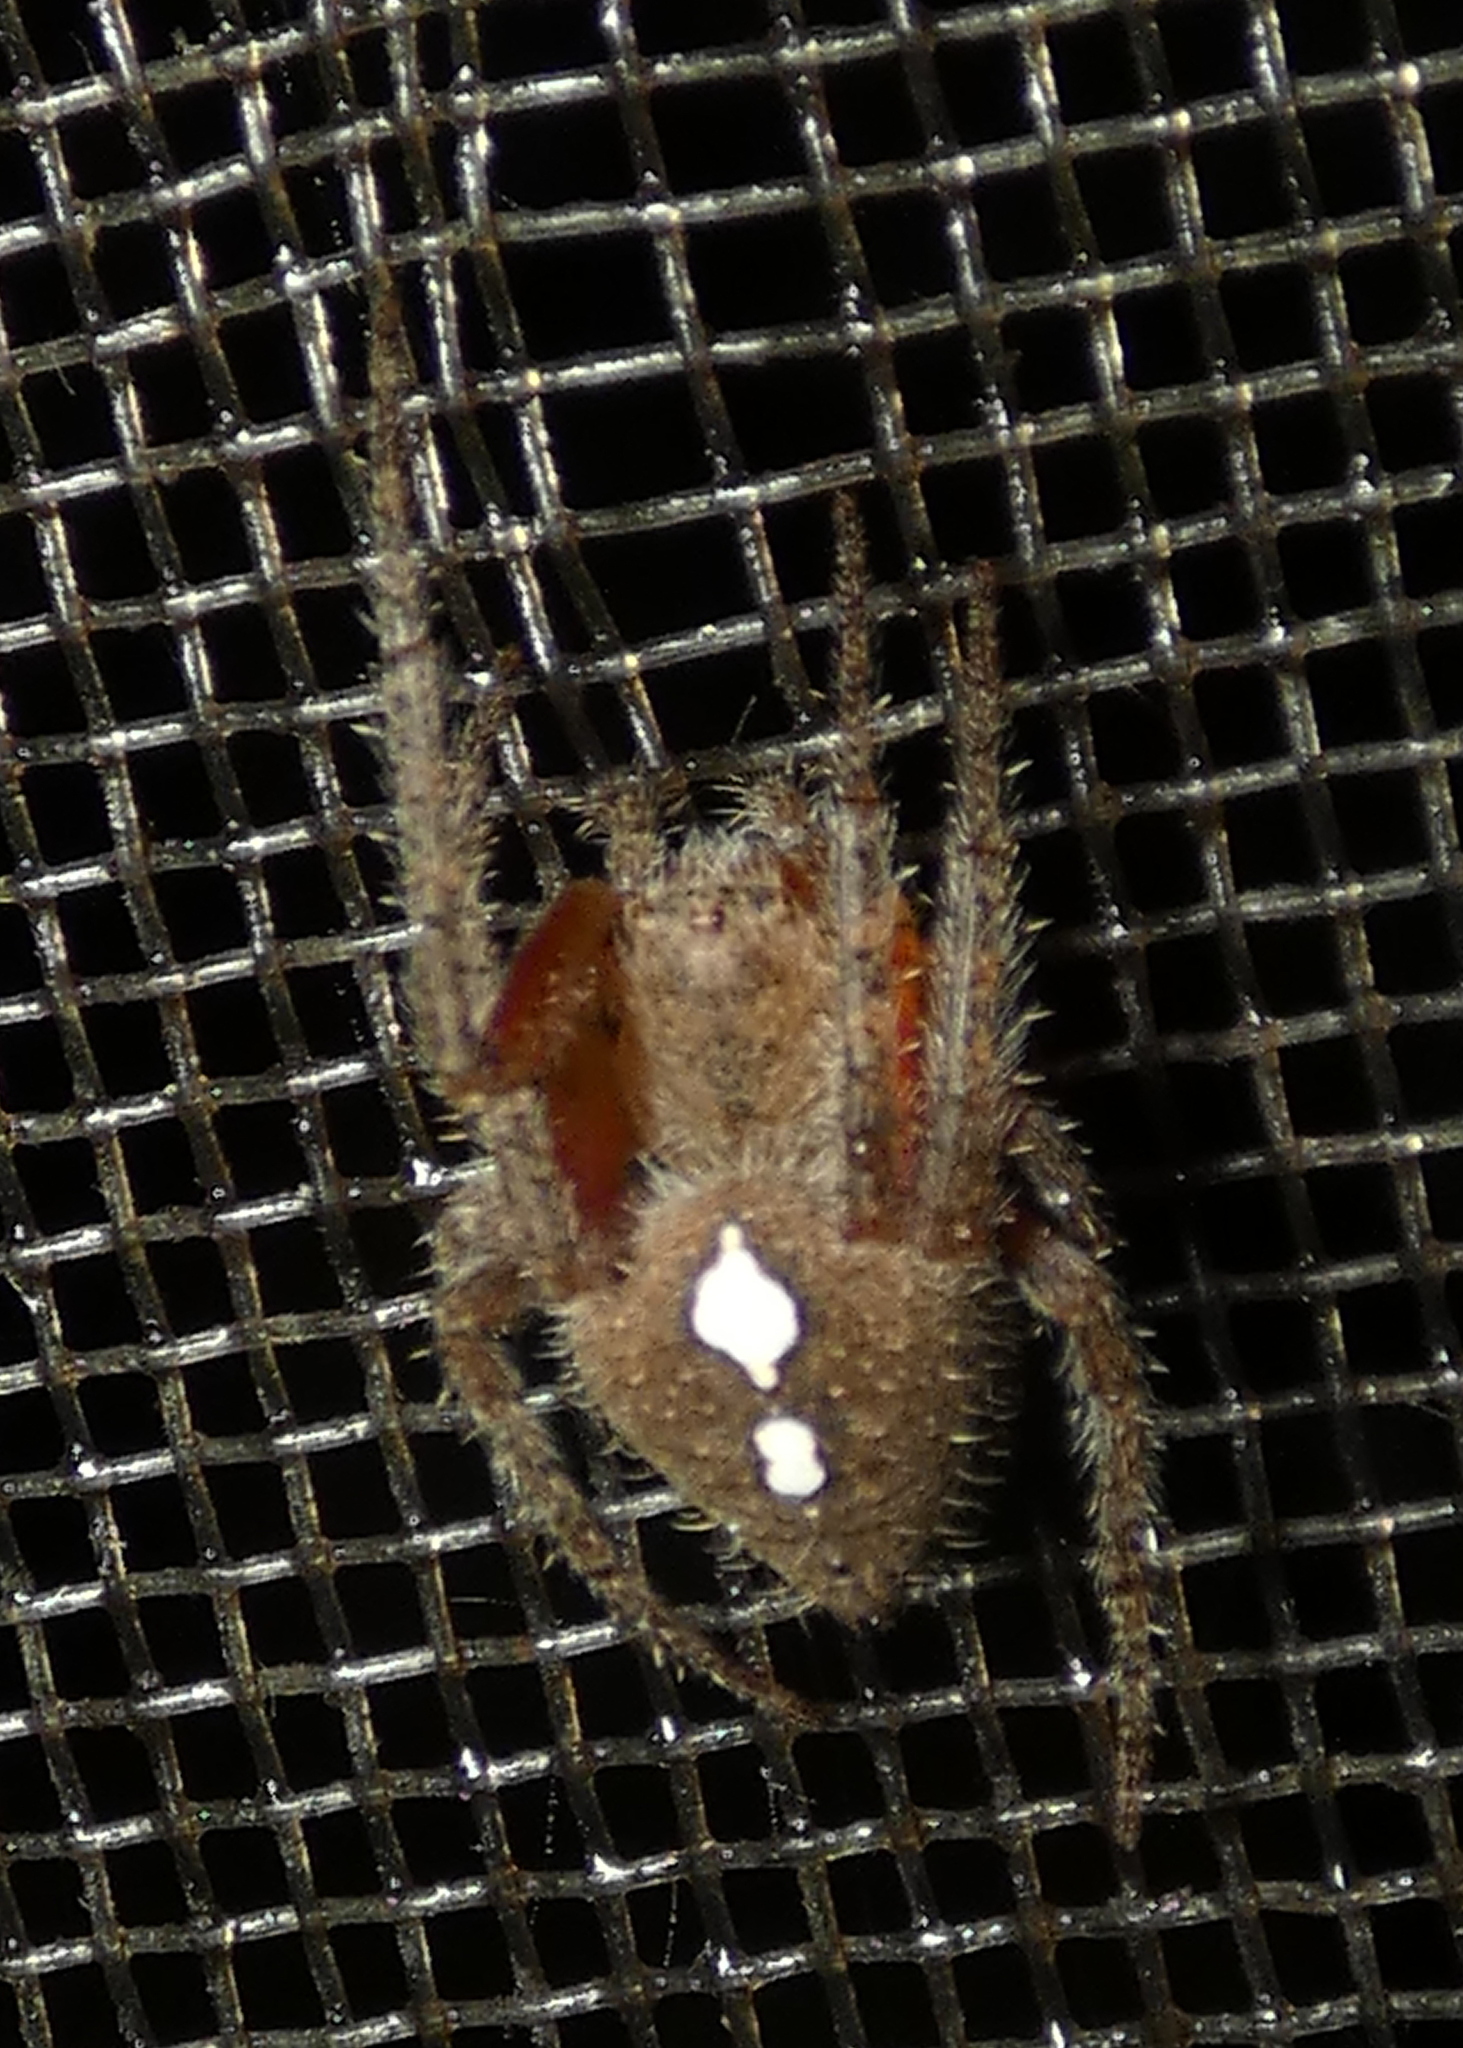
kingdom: Animalia
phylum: Arthropoda
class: Arachnida
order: Araneae
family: Araneidae
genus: Eriophora
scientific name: Eriophora edax
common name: Orb weavers
